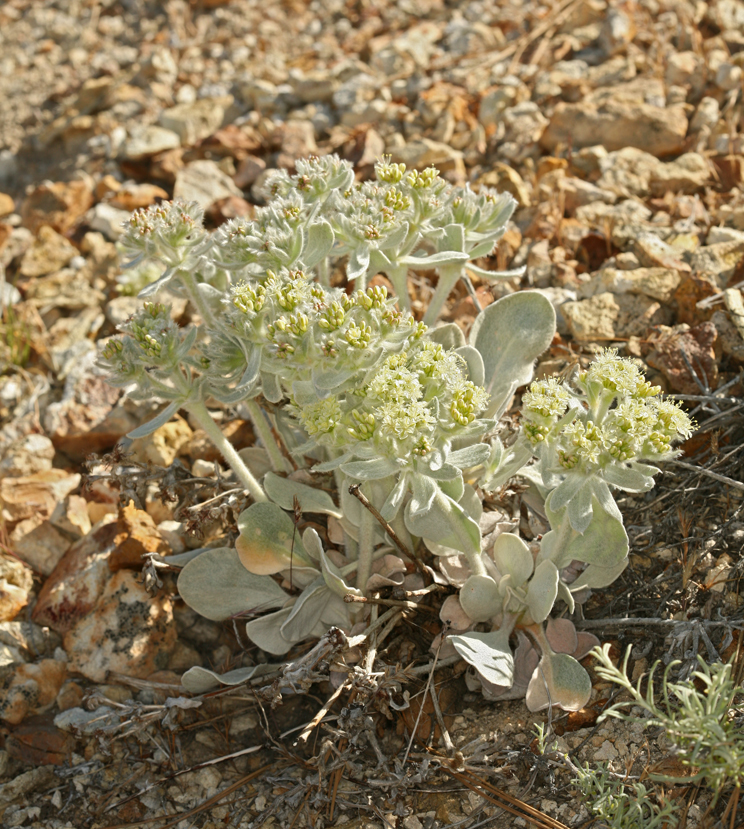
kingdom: Plantae
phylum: Tracheophyta
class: Magnoliopsida
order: Caryophyllales
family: Polygonaceae
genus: Eriogonum
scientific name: Eriogonum robustum
